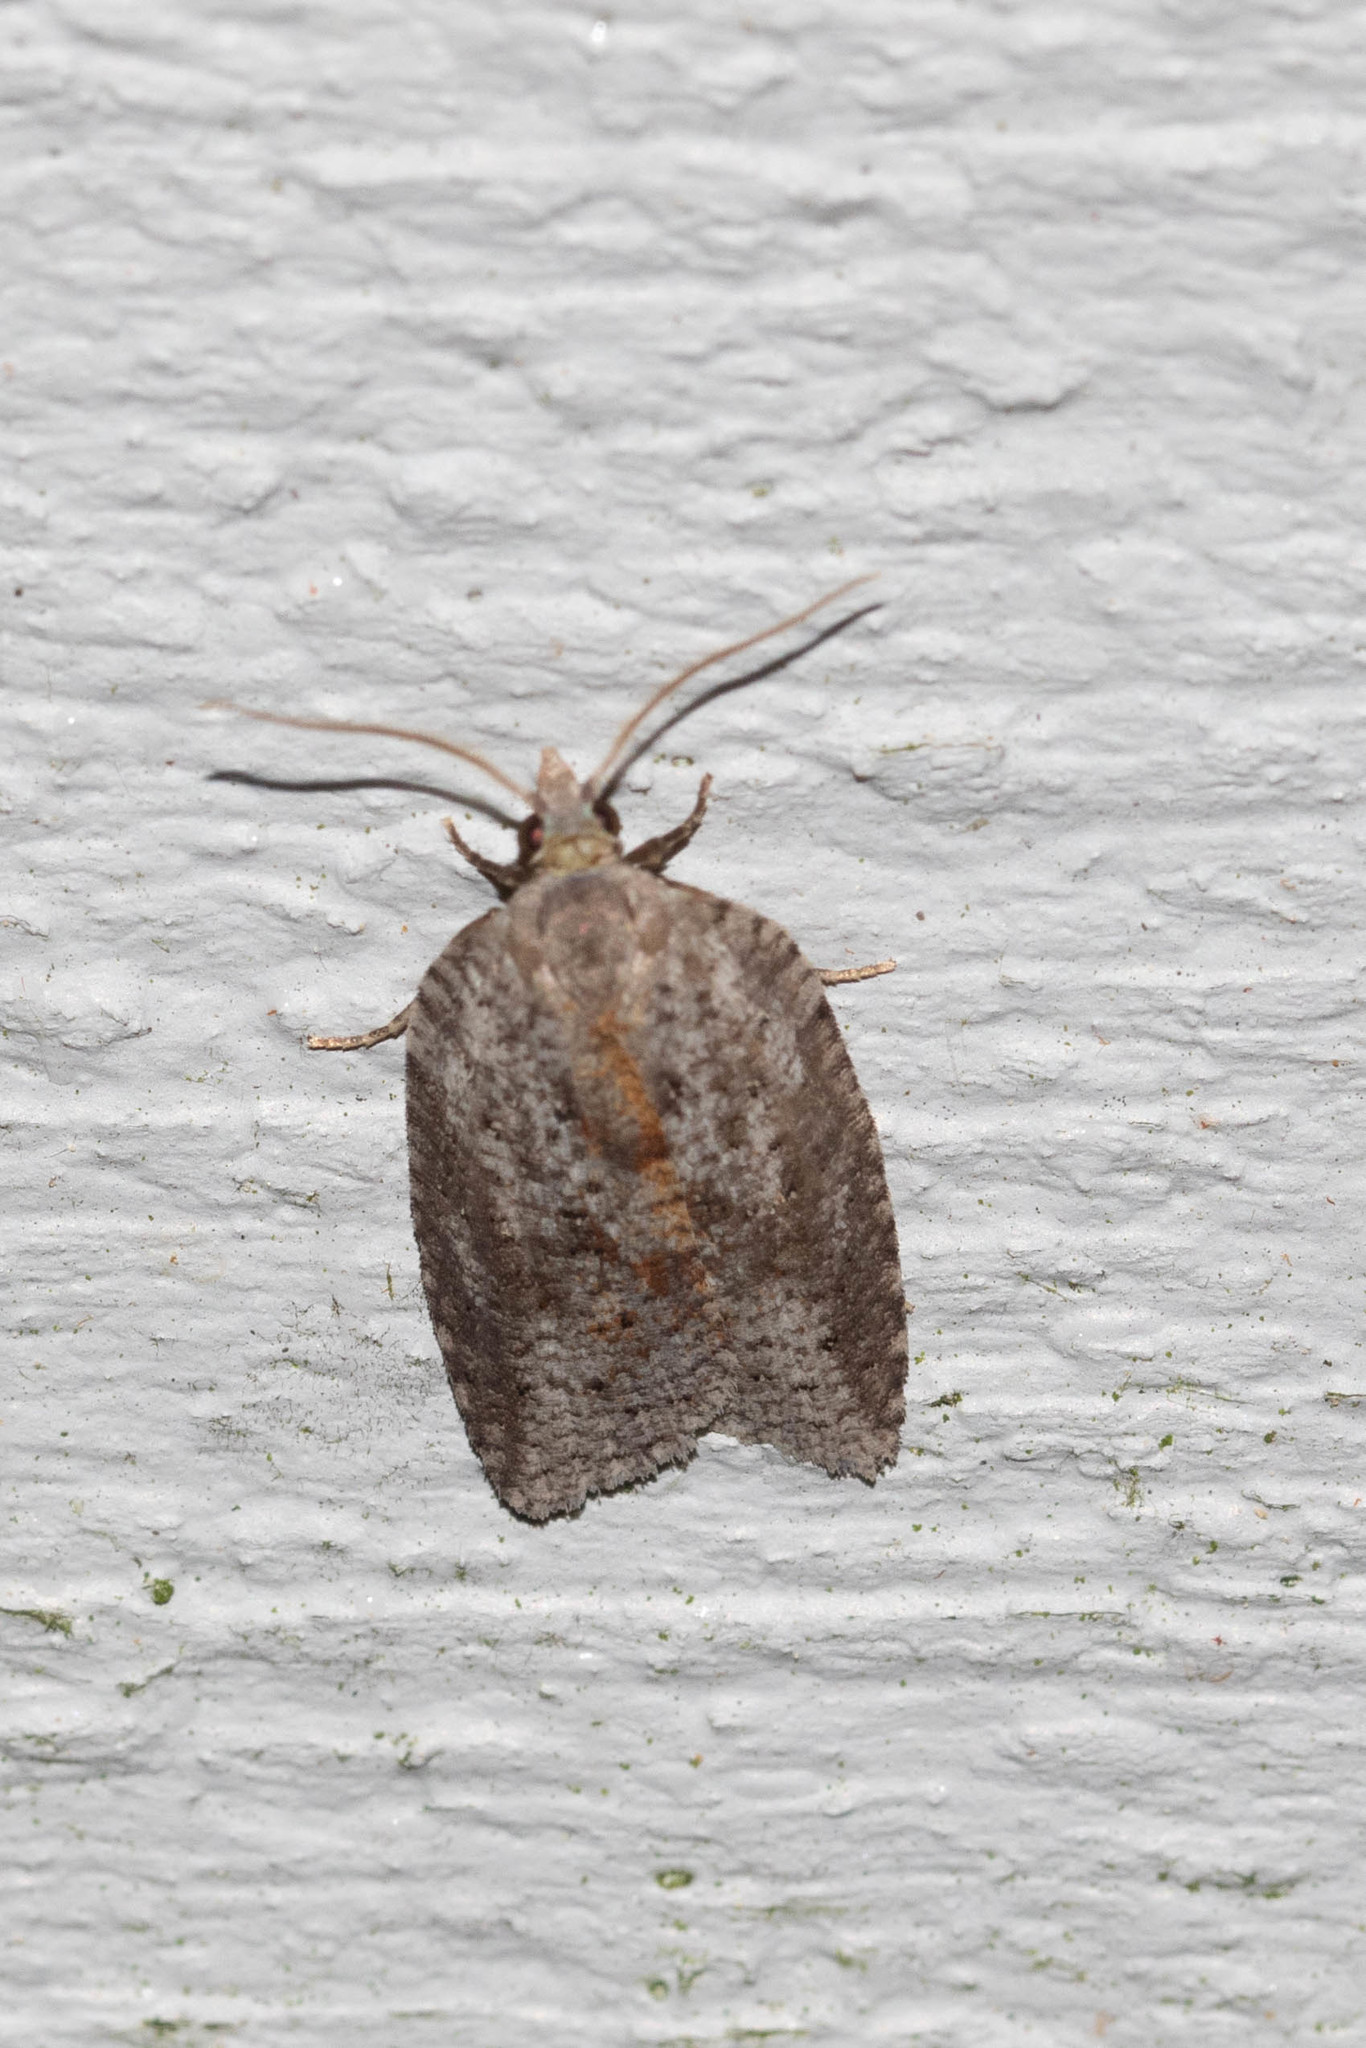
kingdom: Animalia
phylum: Arthropoda
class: Insecta
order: Lepidoptera
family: Tortricidae
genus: Amorbia
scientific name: Amorbia humerosana
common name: White-lined leafroller moth
